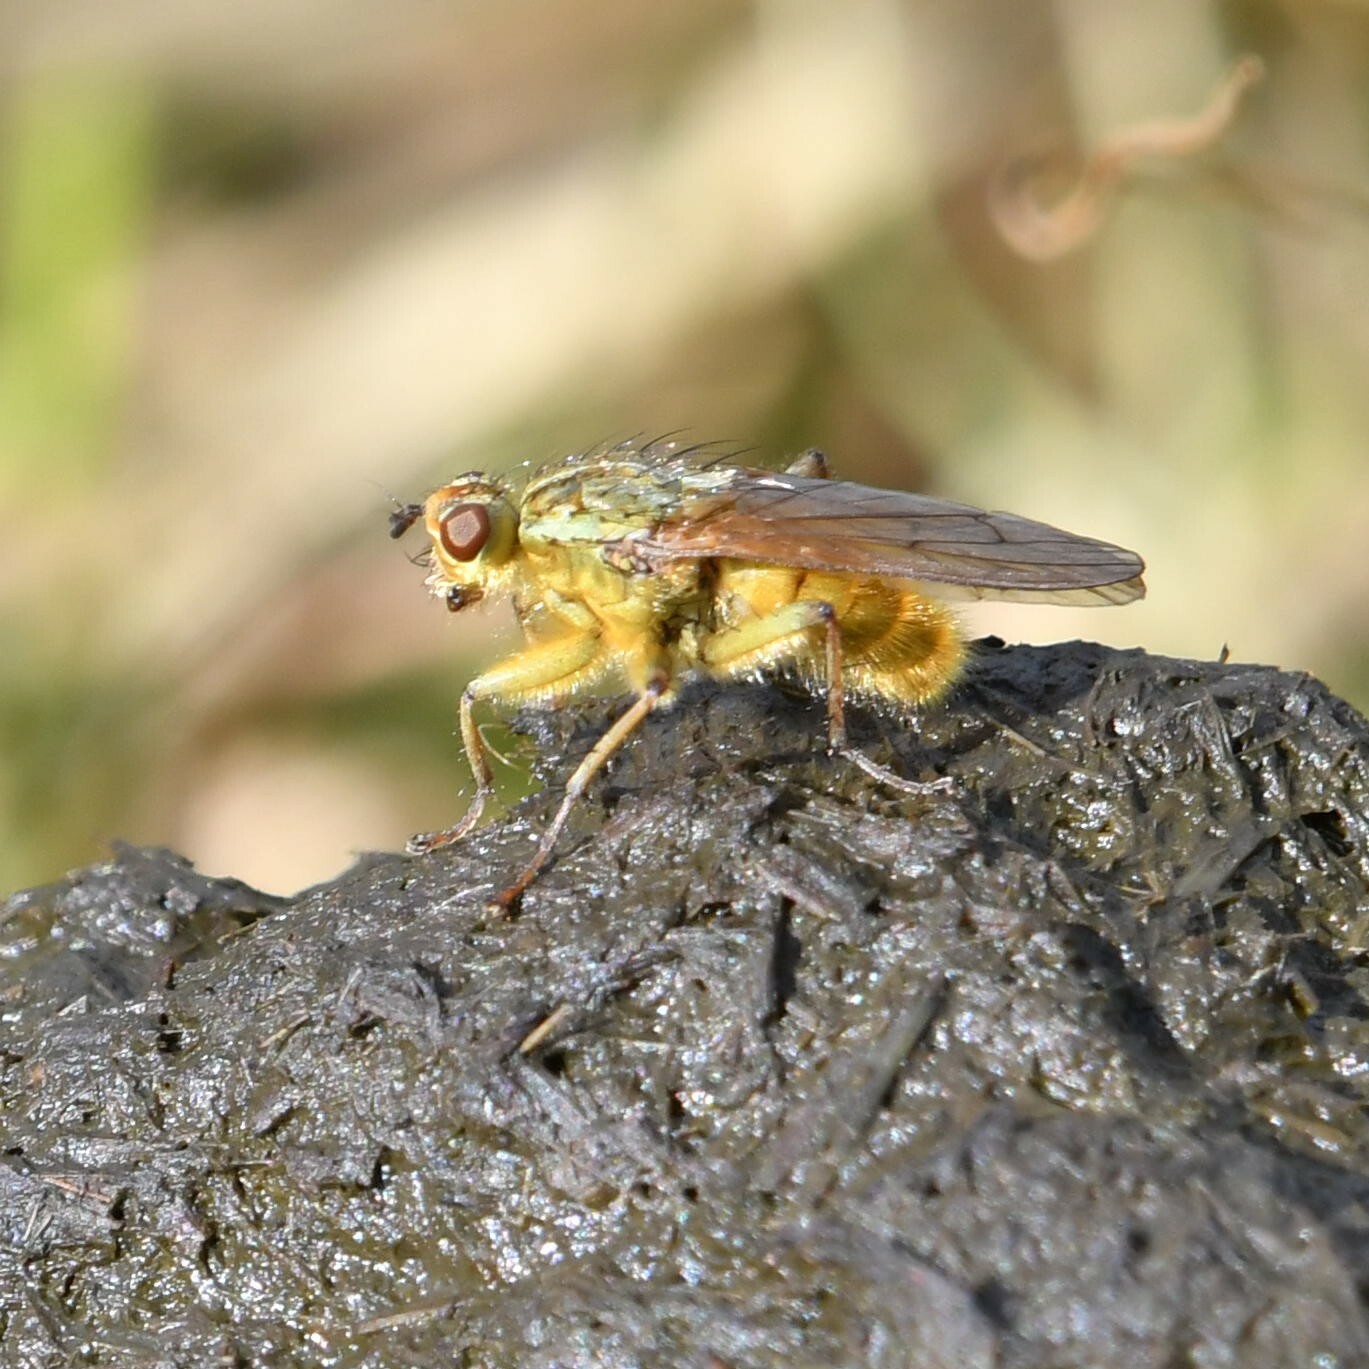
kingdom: Animalia
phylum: Arthropoda
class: Insecta
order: Diptera
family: Scathophagidae
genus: Scathophaga
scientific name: Scathophaga stercoraria
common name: Yellow dung fly
